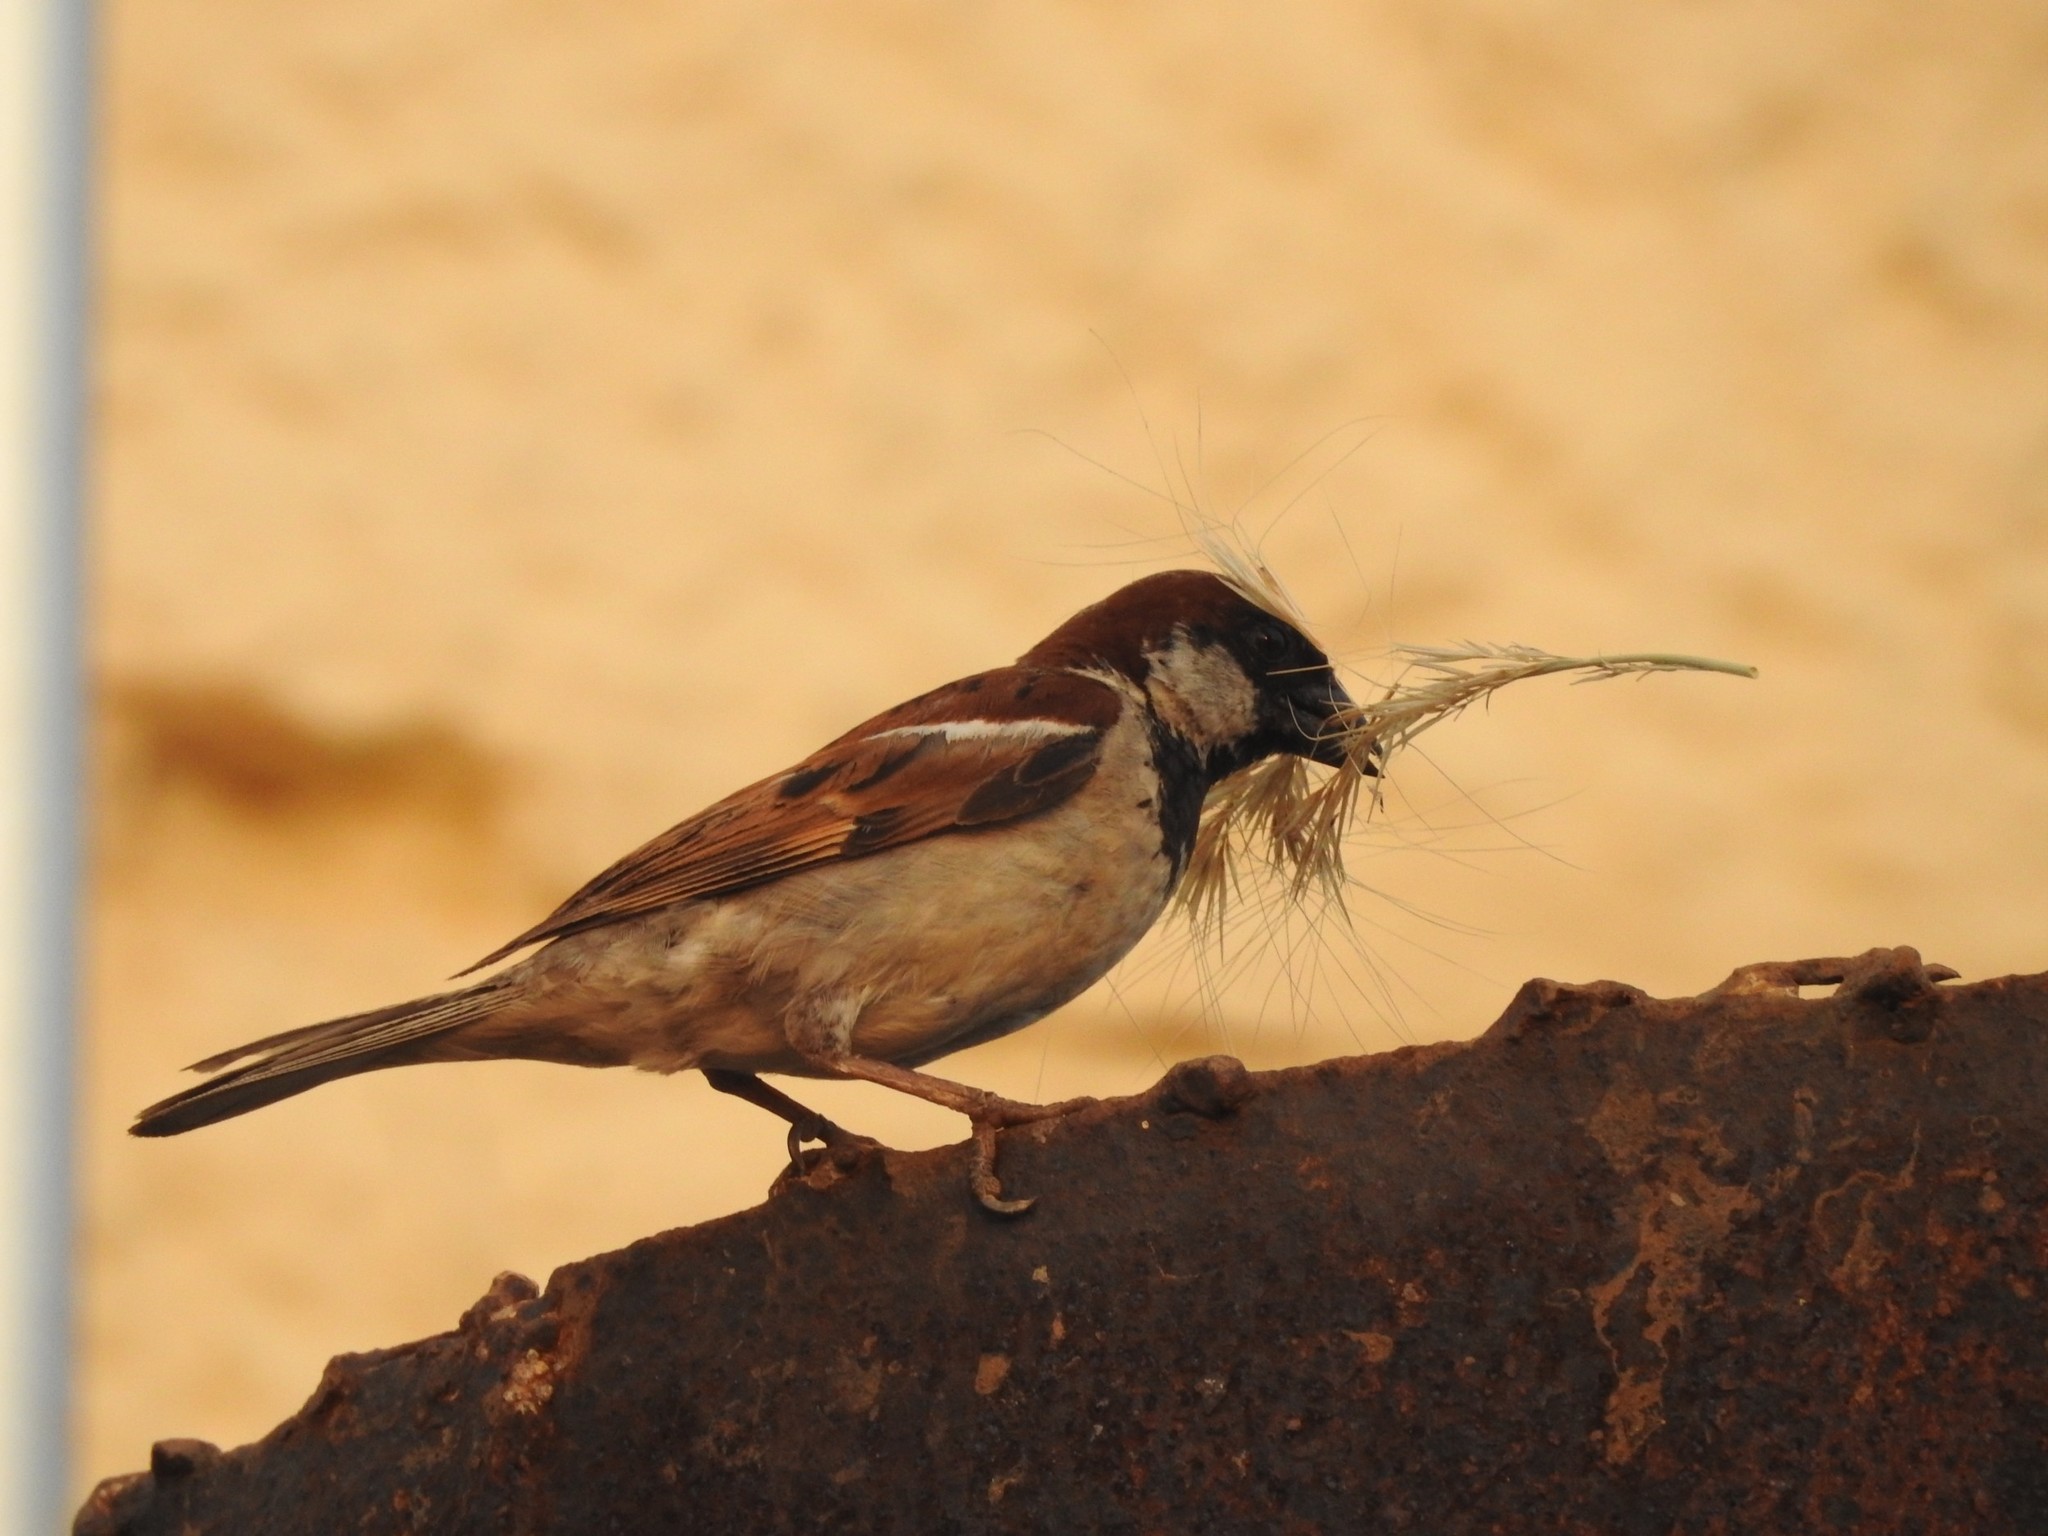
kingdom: Animalia
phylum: Chordata
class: Aves
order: Passeriformes
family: Passeridae
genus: Passer
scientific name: Passer domesticus
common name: House sparrow
